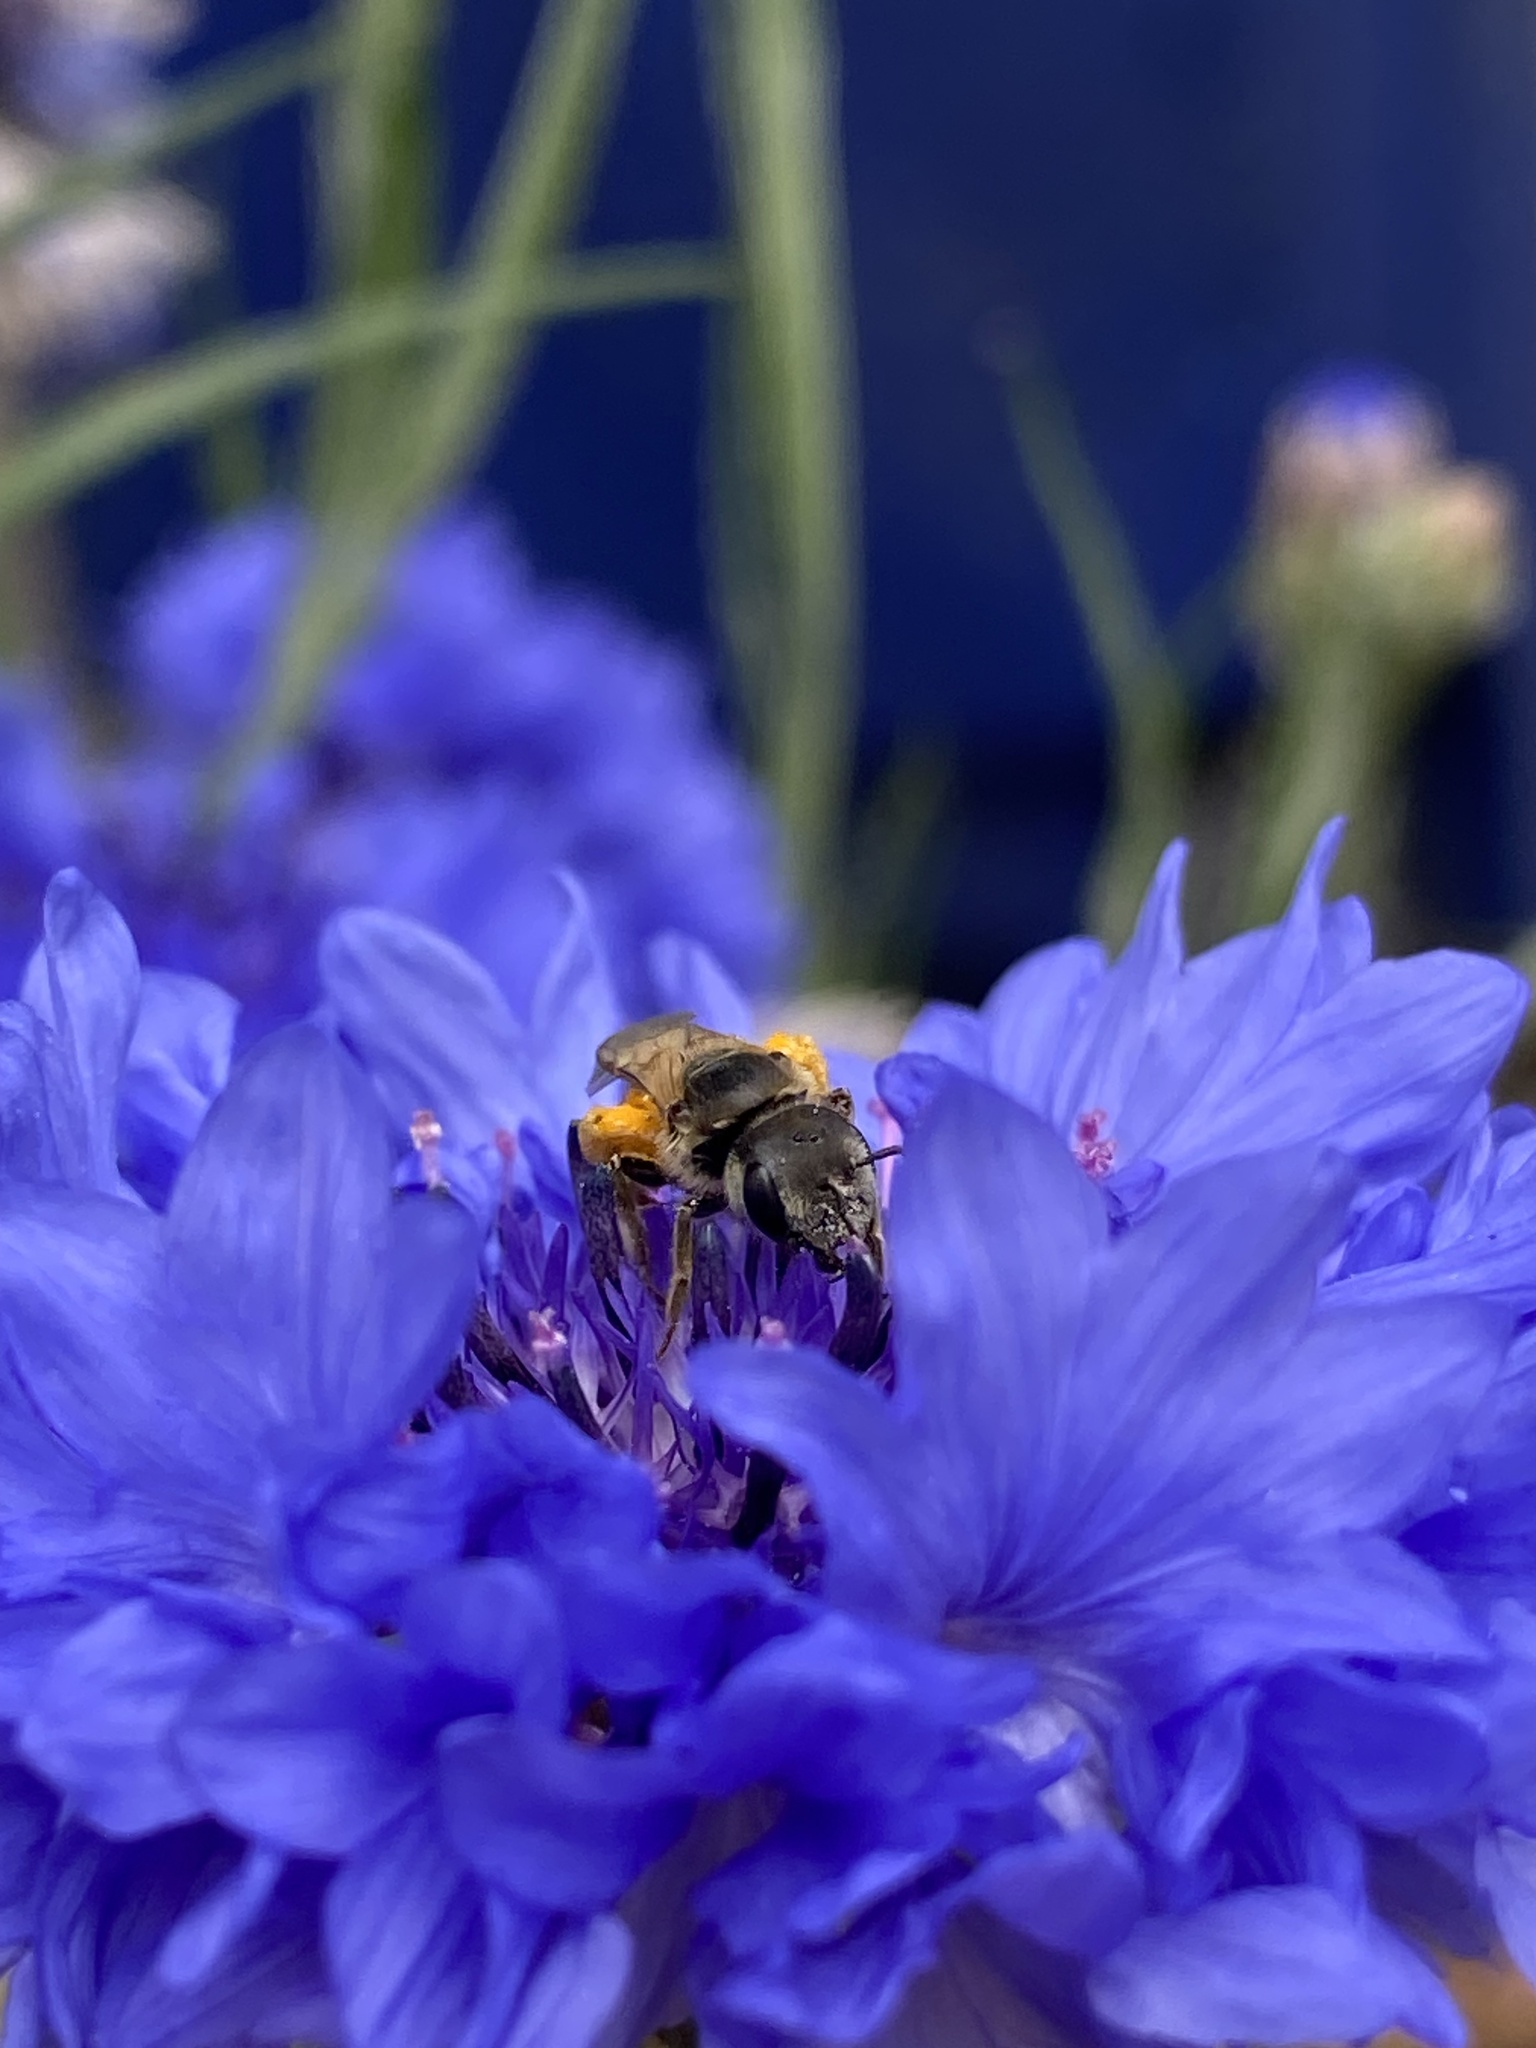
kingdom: Animalia
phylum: Arthropoda
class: Insecta
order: Hymenoptera
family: Halictidae
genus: Halictus
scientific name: Halictus ligatus
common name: Ligated furrow bee
